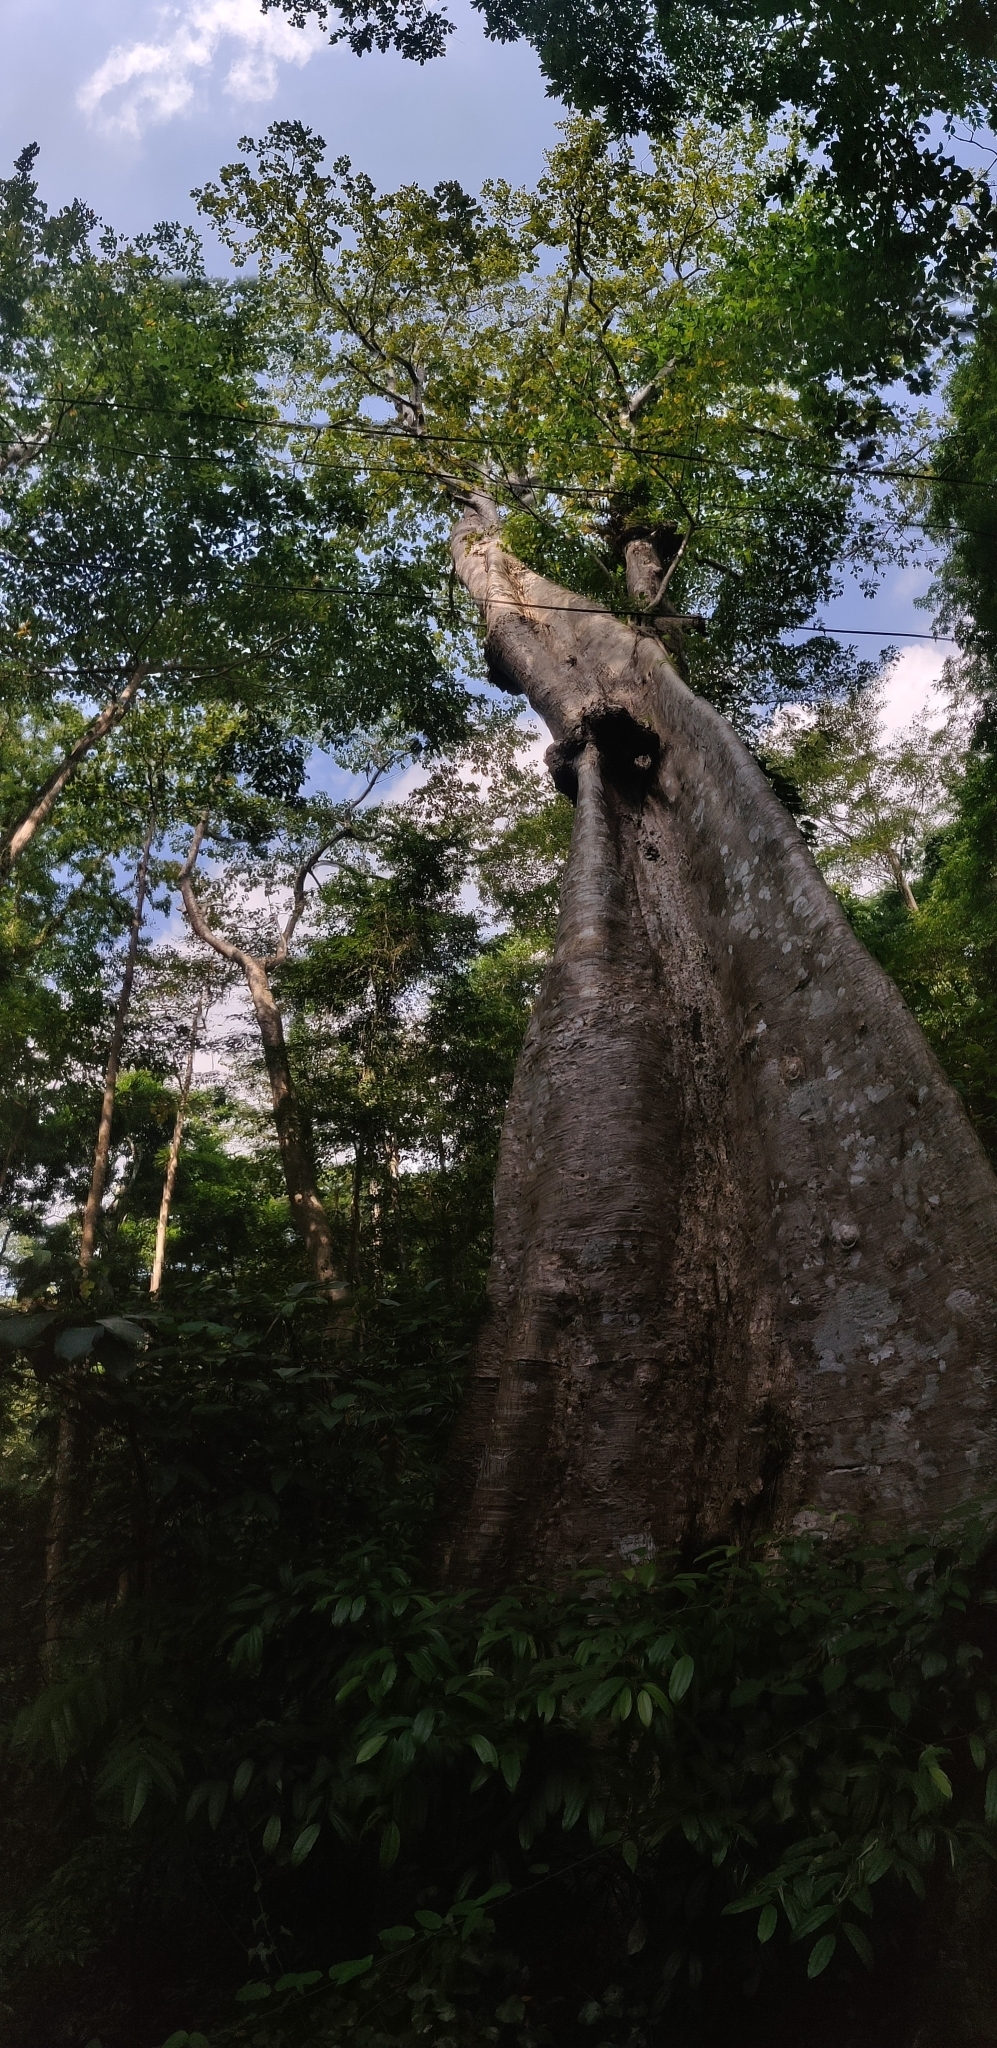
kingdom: Plantae
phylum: Tracheophyta
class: Magnoliopsida
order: Cucurbitales
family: Tetramelaceae
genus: Tetrameles
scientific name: Tetrameles nudiflora
